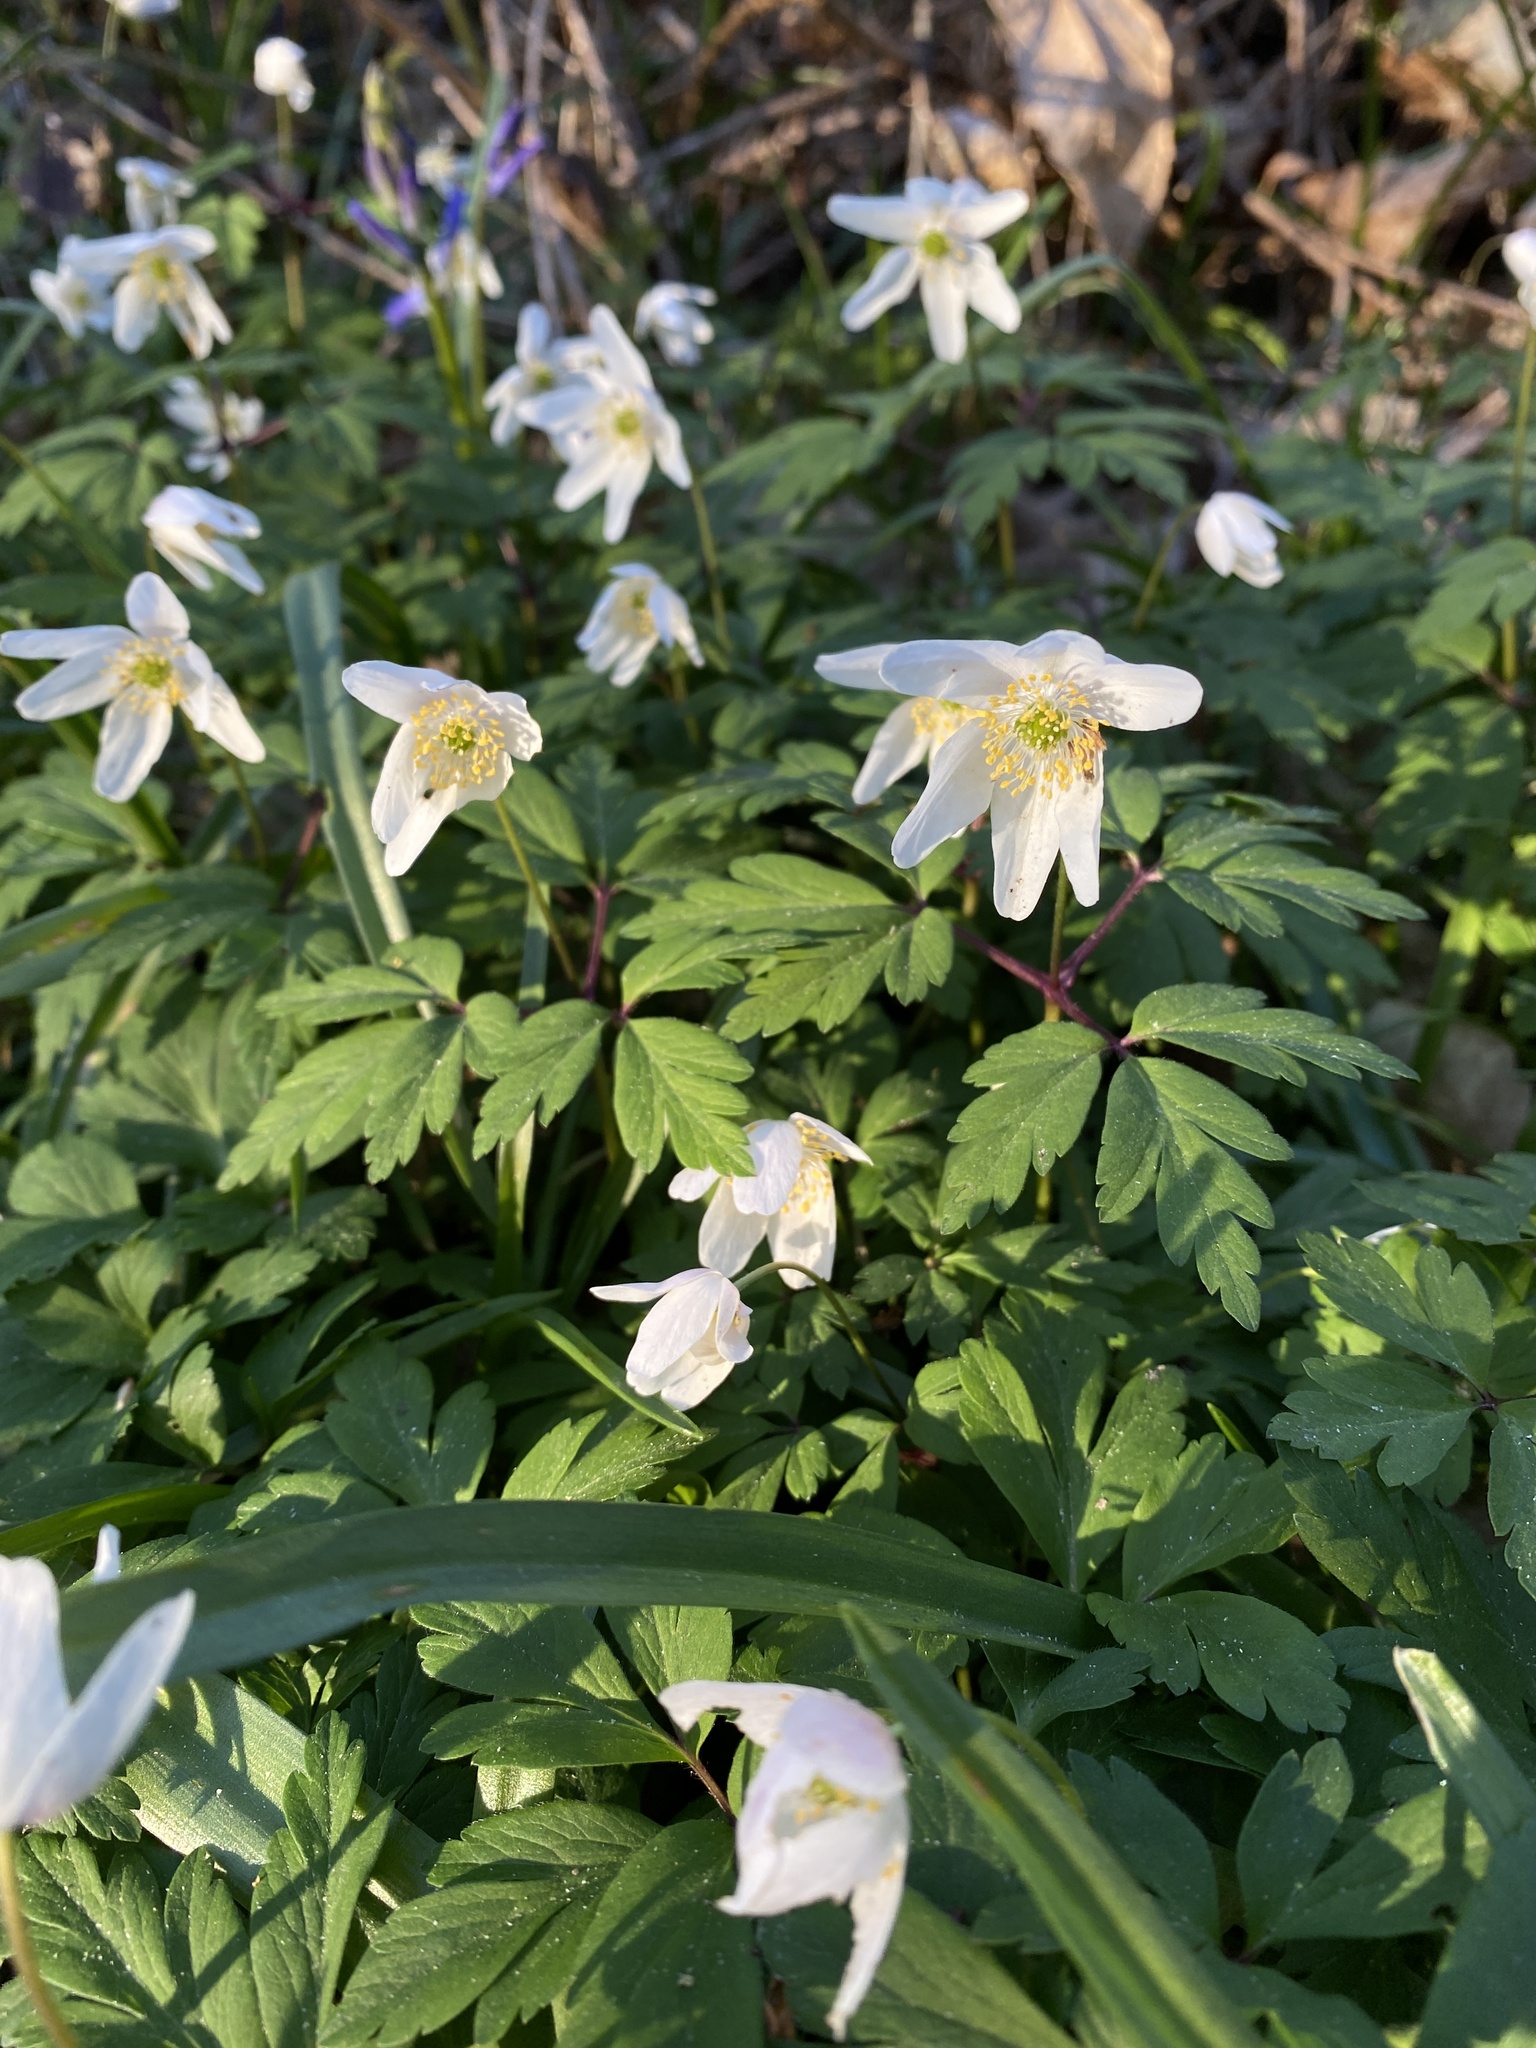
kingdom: Plantae
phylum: Tracheophyta
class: Magnoliopsida
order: Ranunculales
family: Ranunculaceae
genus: Anemone
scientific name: Anemone nemorosa
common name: Wood anemone
